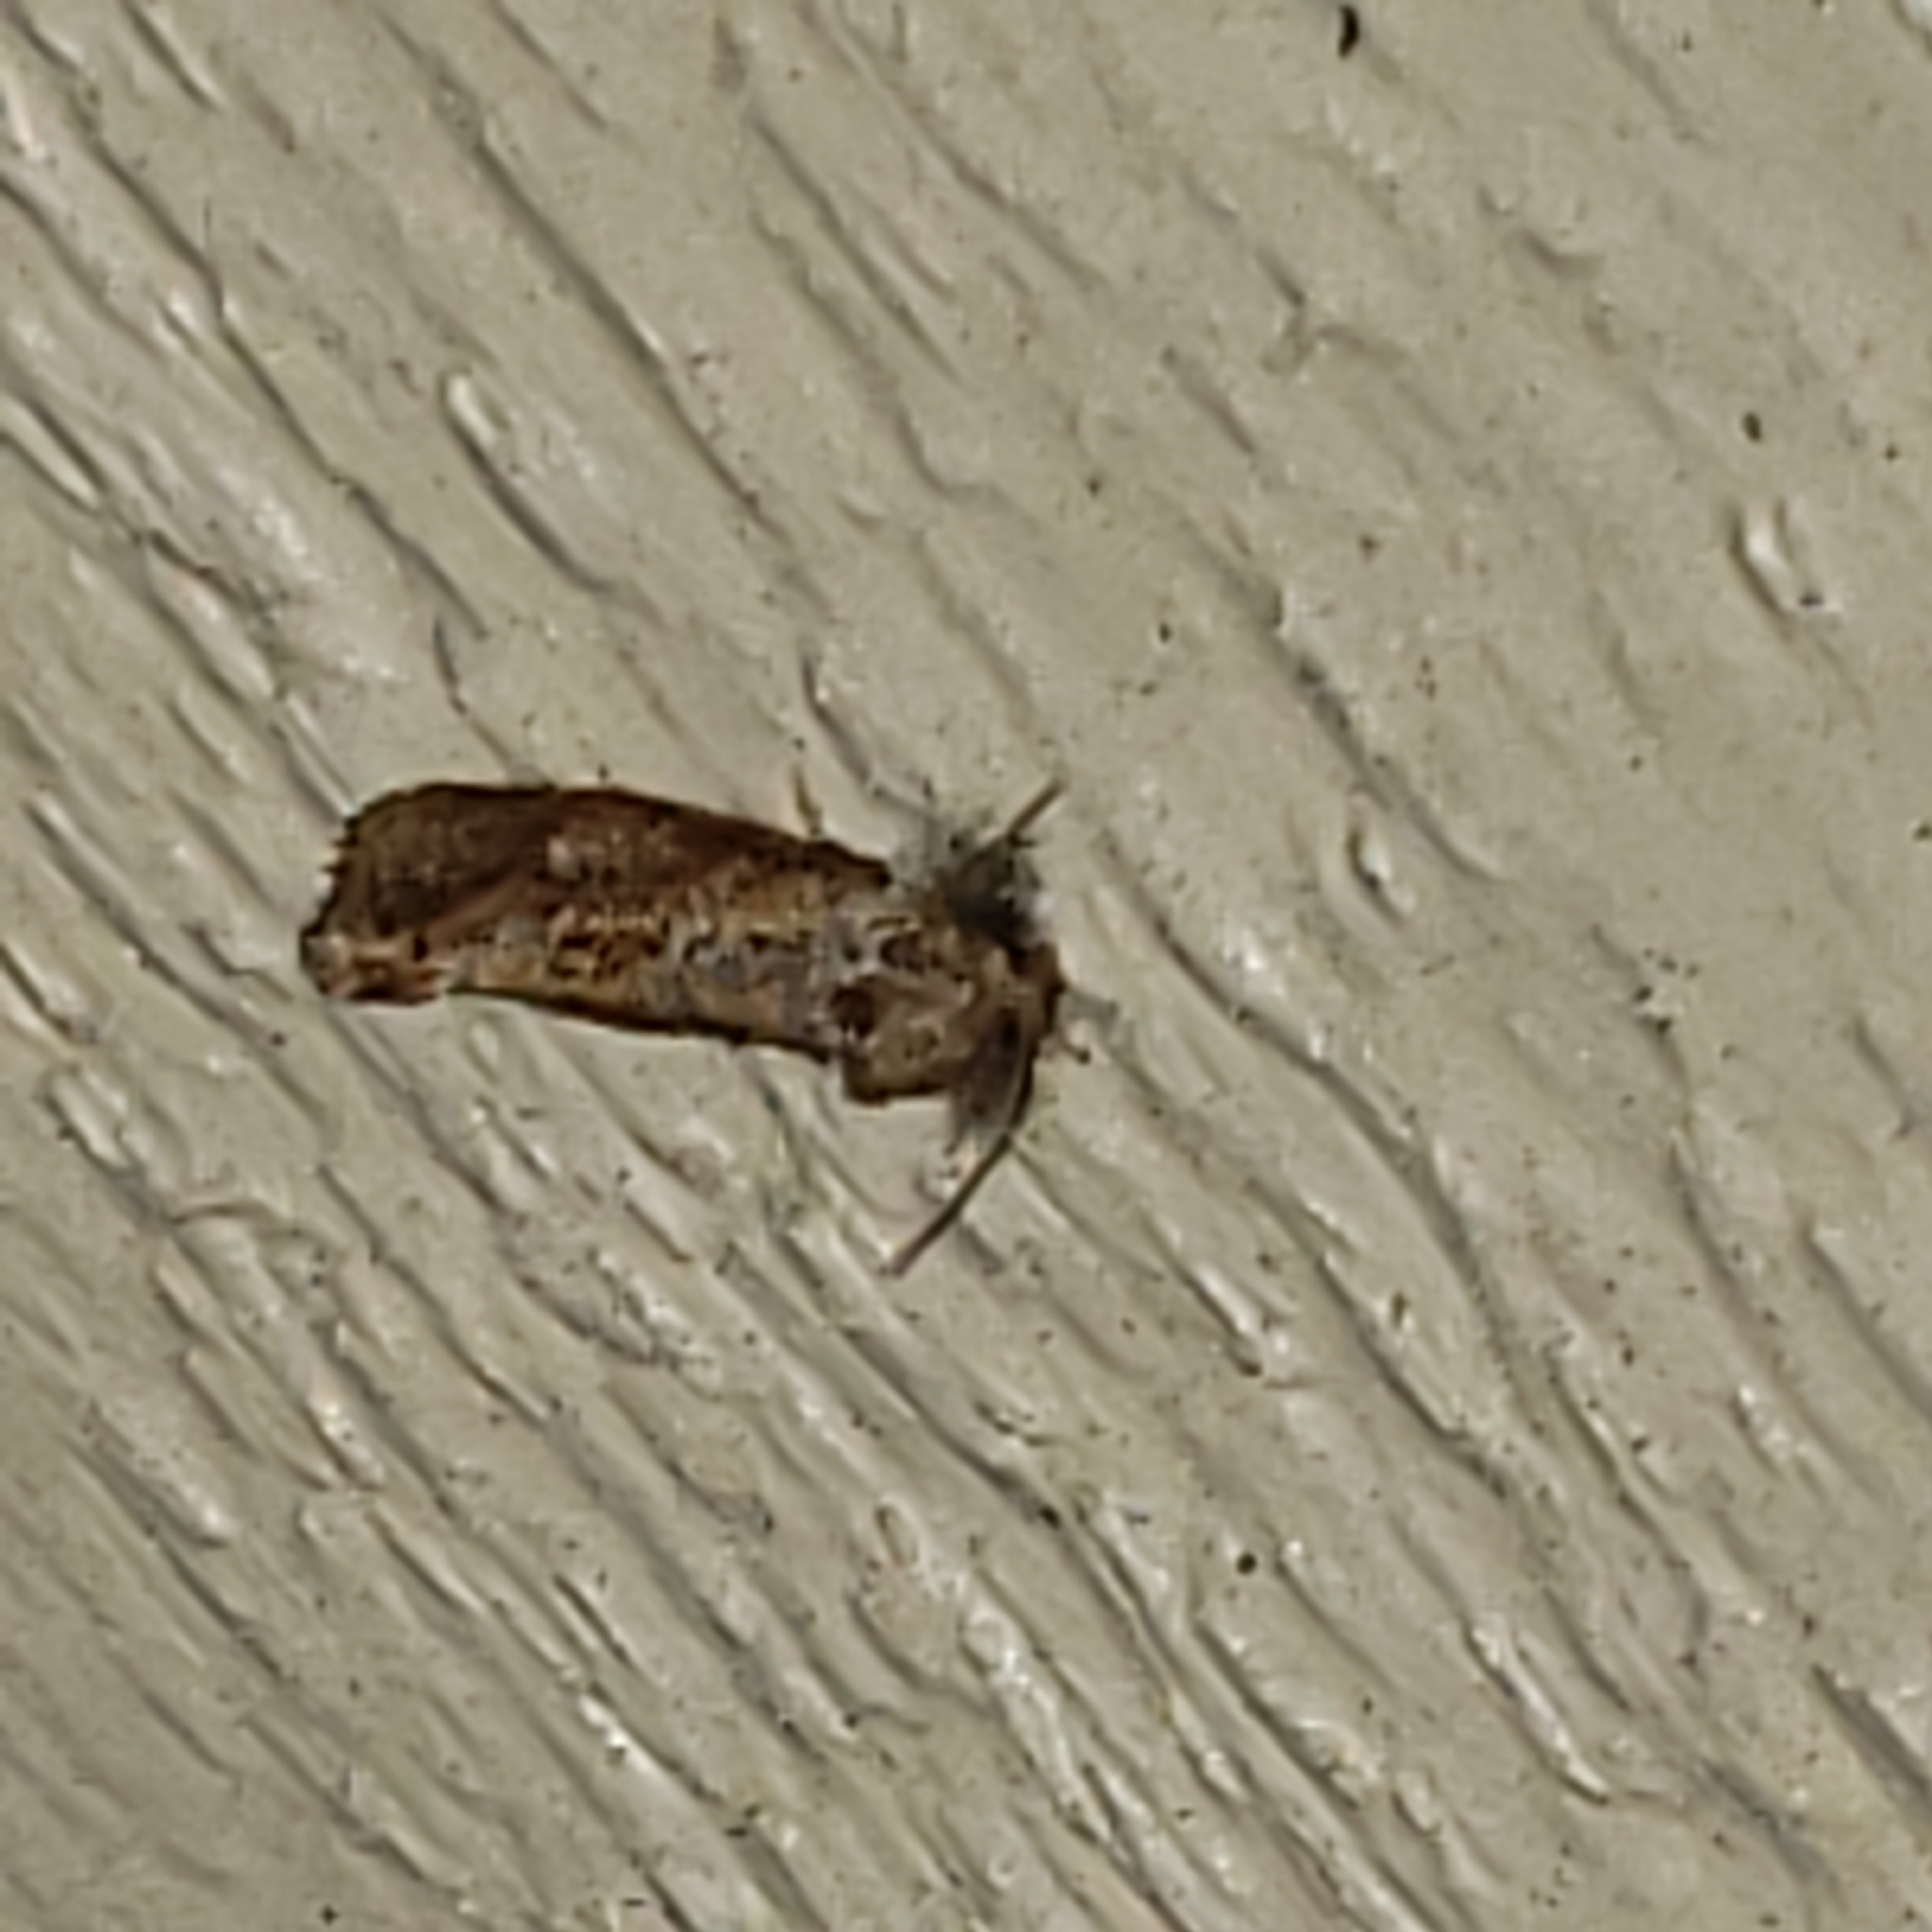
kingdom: Animalia
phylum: Arthropoda
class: Insecta
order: Lepidoptera
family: Tineidae
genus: Acrolophus
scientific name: Acrolophus panamae
